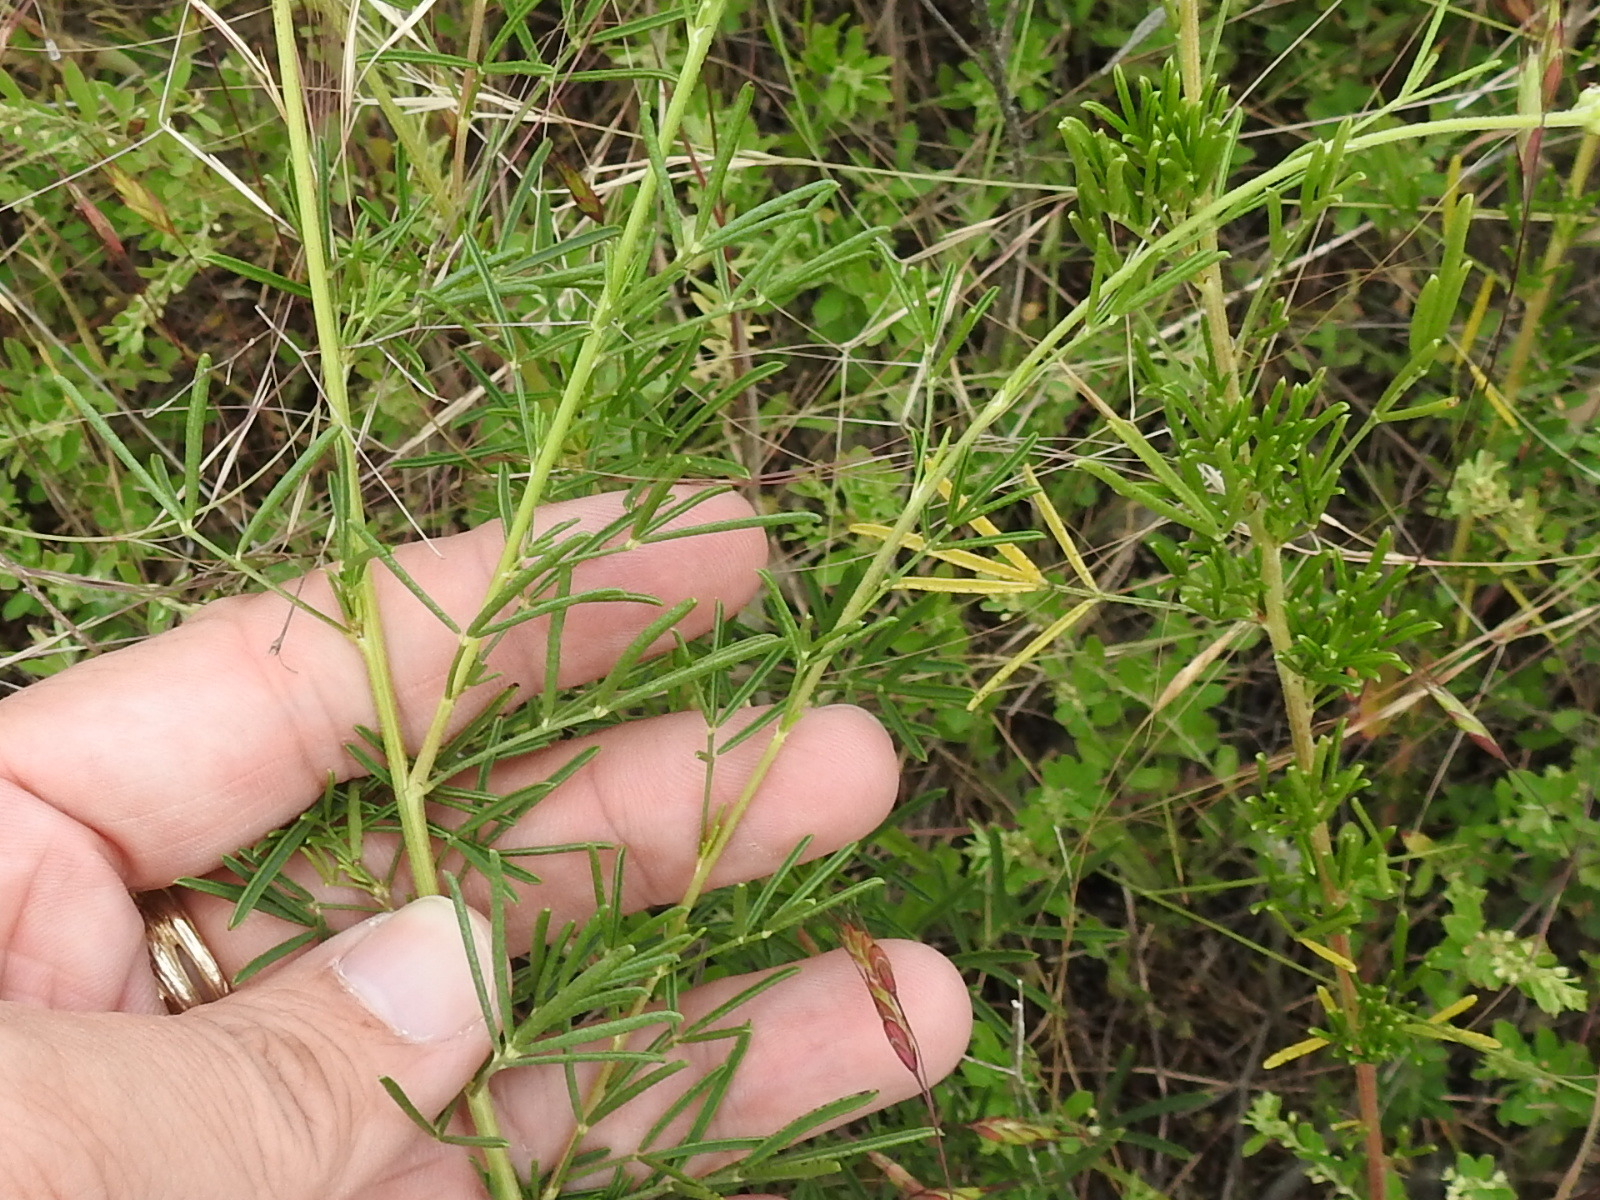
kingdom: Plantae
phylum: Tracheophyta
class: Magnoliopsida
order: Fabales
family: Fabaceae
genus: Dalea
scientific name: Dalea compacta
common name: Compact prairie-clover
